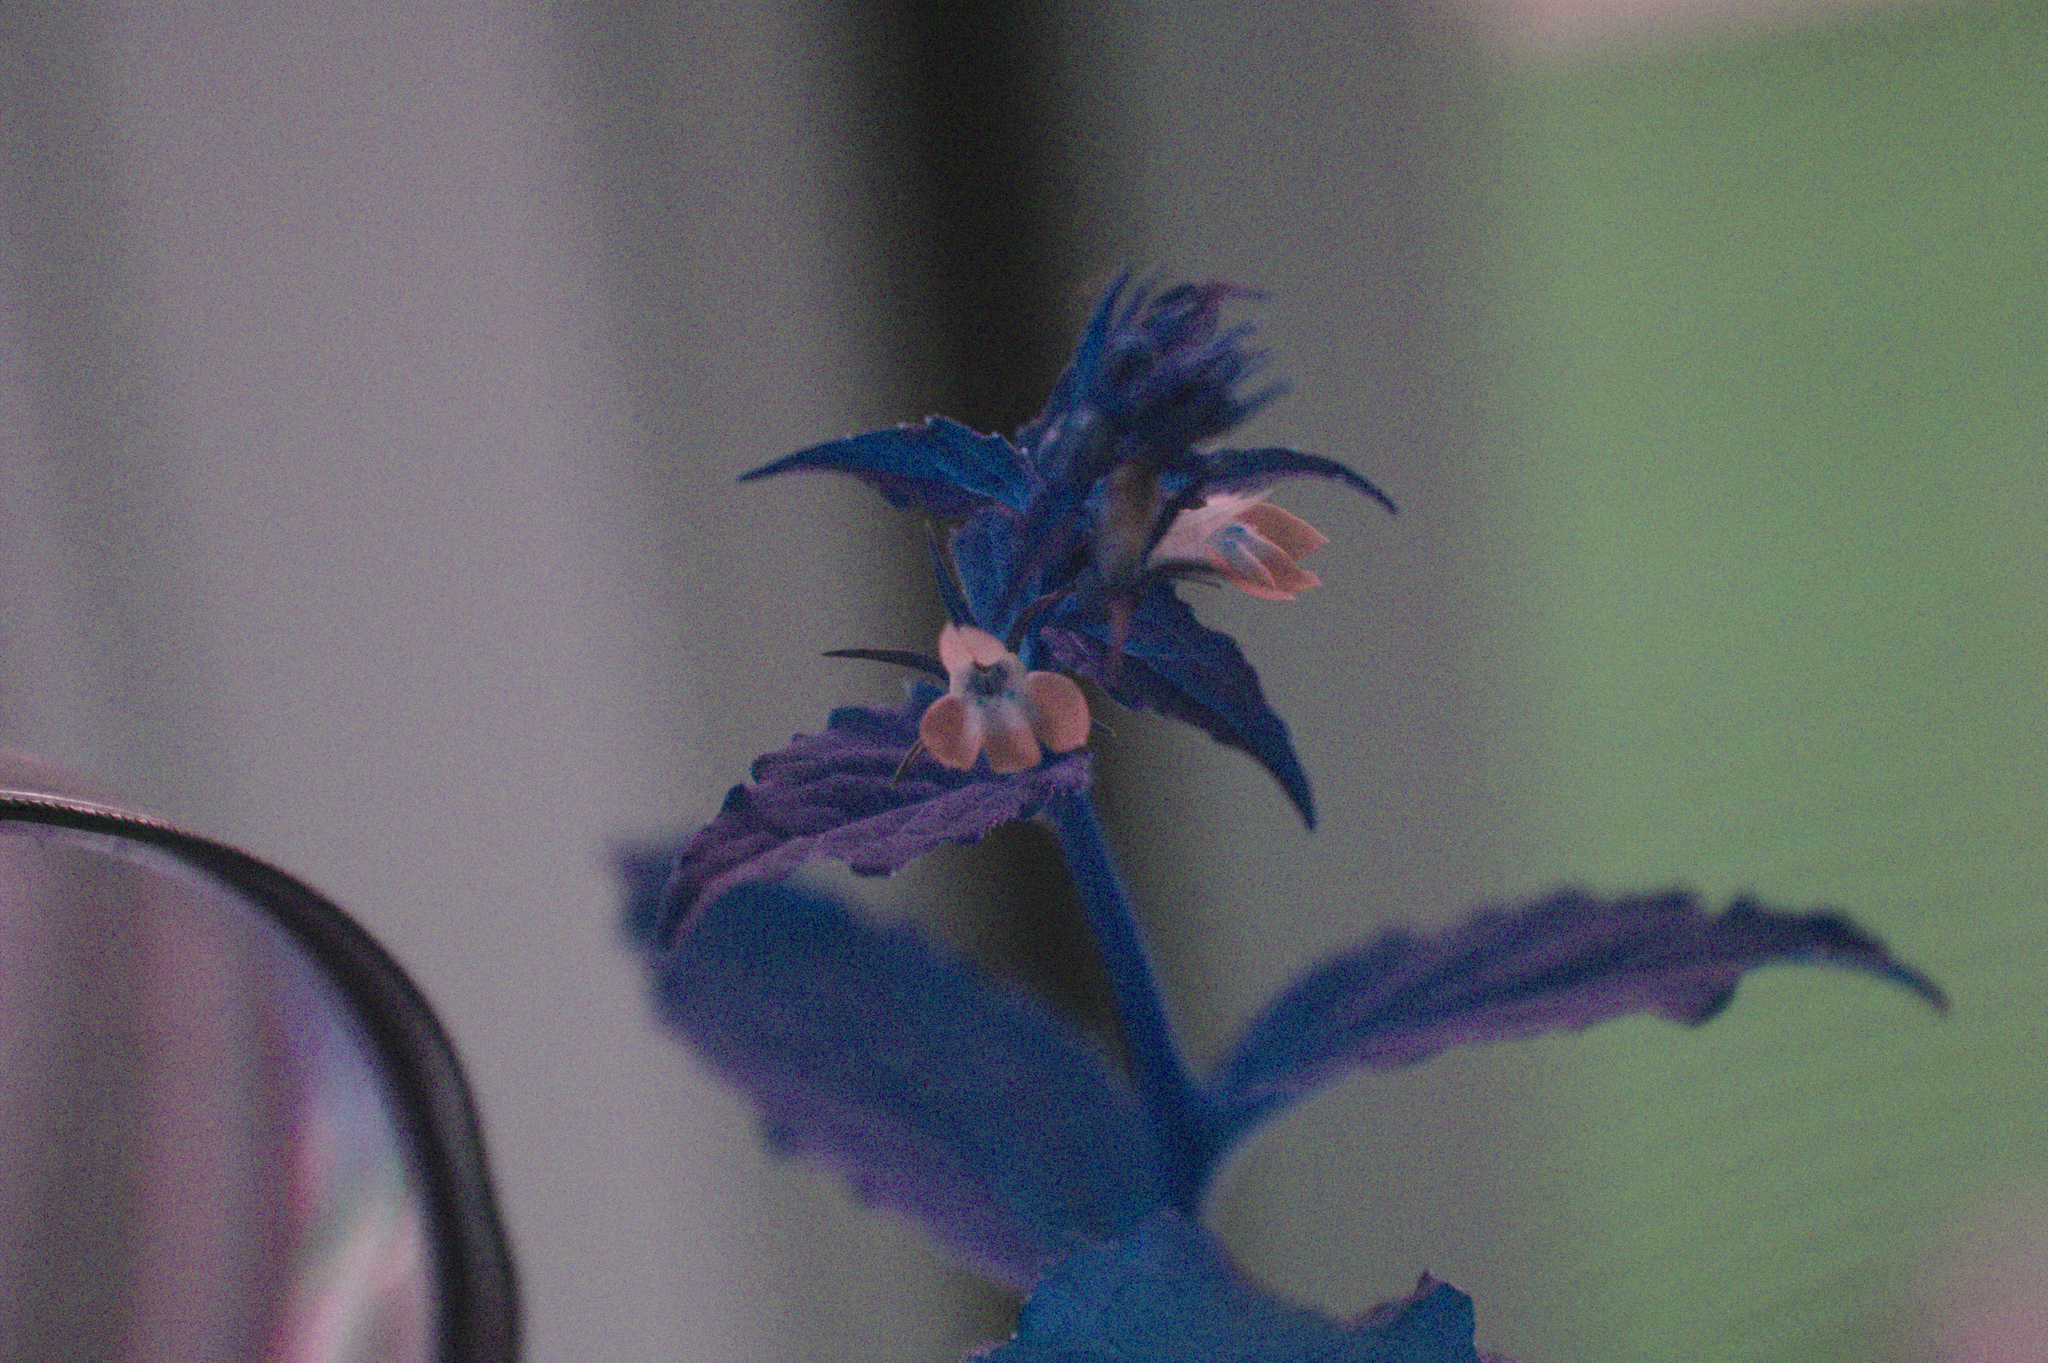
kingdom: Plantae
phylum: Tracheophyta
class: Magnoliopsida
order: Asterales
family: Campanulaceae
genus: Lobelia
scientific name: Lobelia inflata
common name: Indian tobacco
